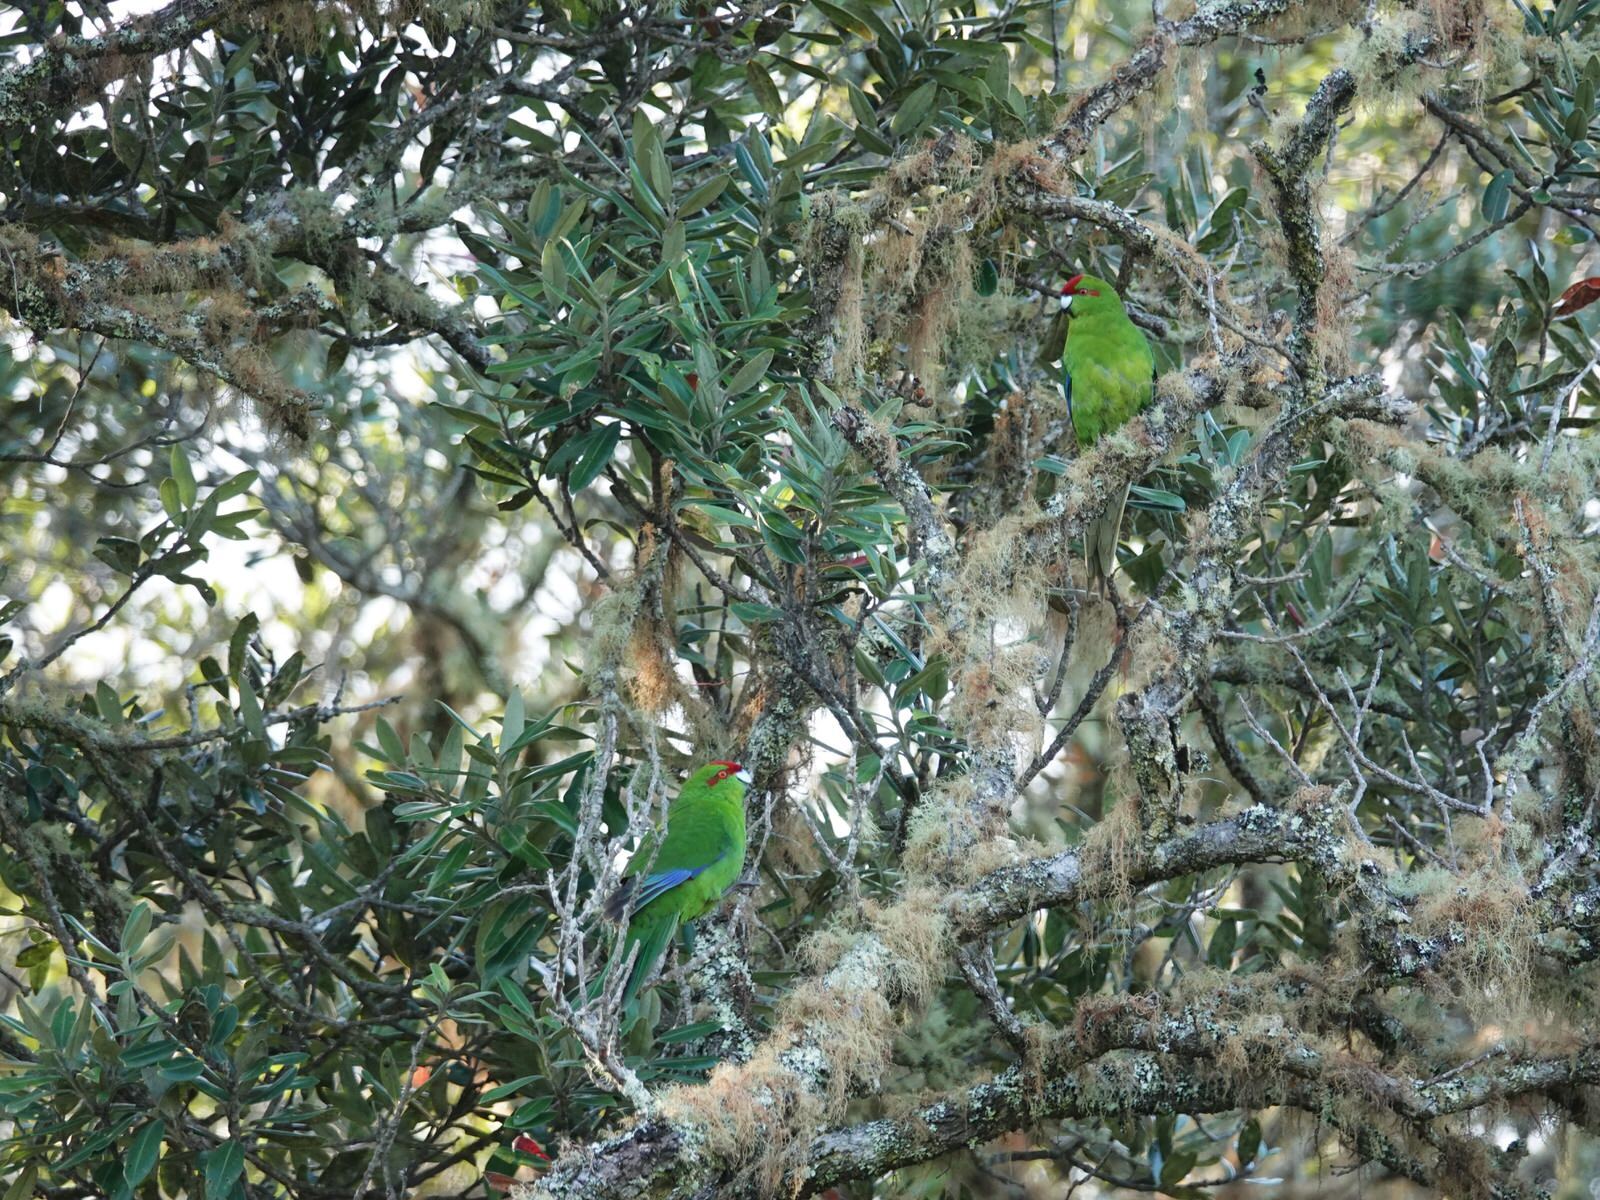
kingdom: Animalia
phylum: Chordata
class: Aves
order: Psittaciformes
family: Psittacidae
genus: Cyanoramphus
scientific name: Cyanoramphus novaezelandiae
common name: Red-fronted parakeet
